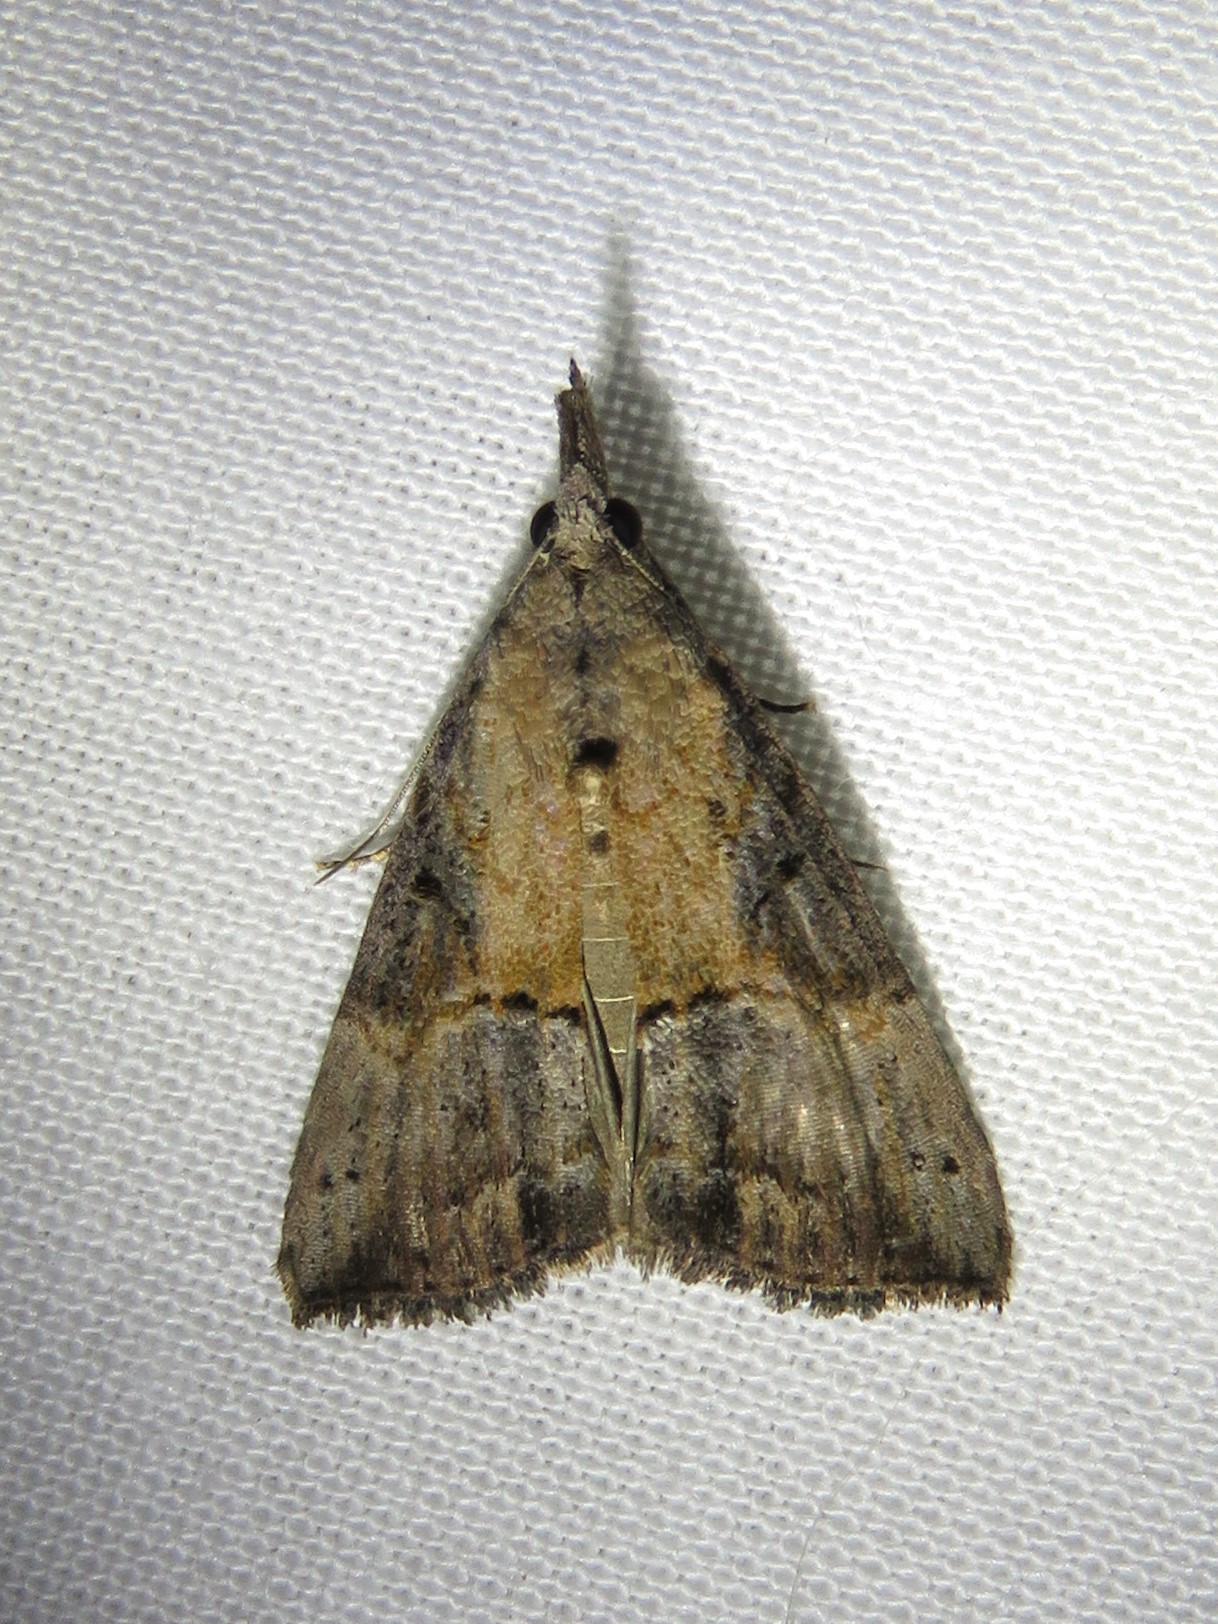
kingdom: Animalia
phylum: Arthropoda
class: Insecta
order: Lepidoptera
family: Erebidae
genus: Hypena
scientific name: Hypena scabra
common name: Green cloverworm
